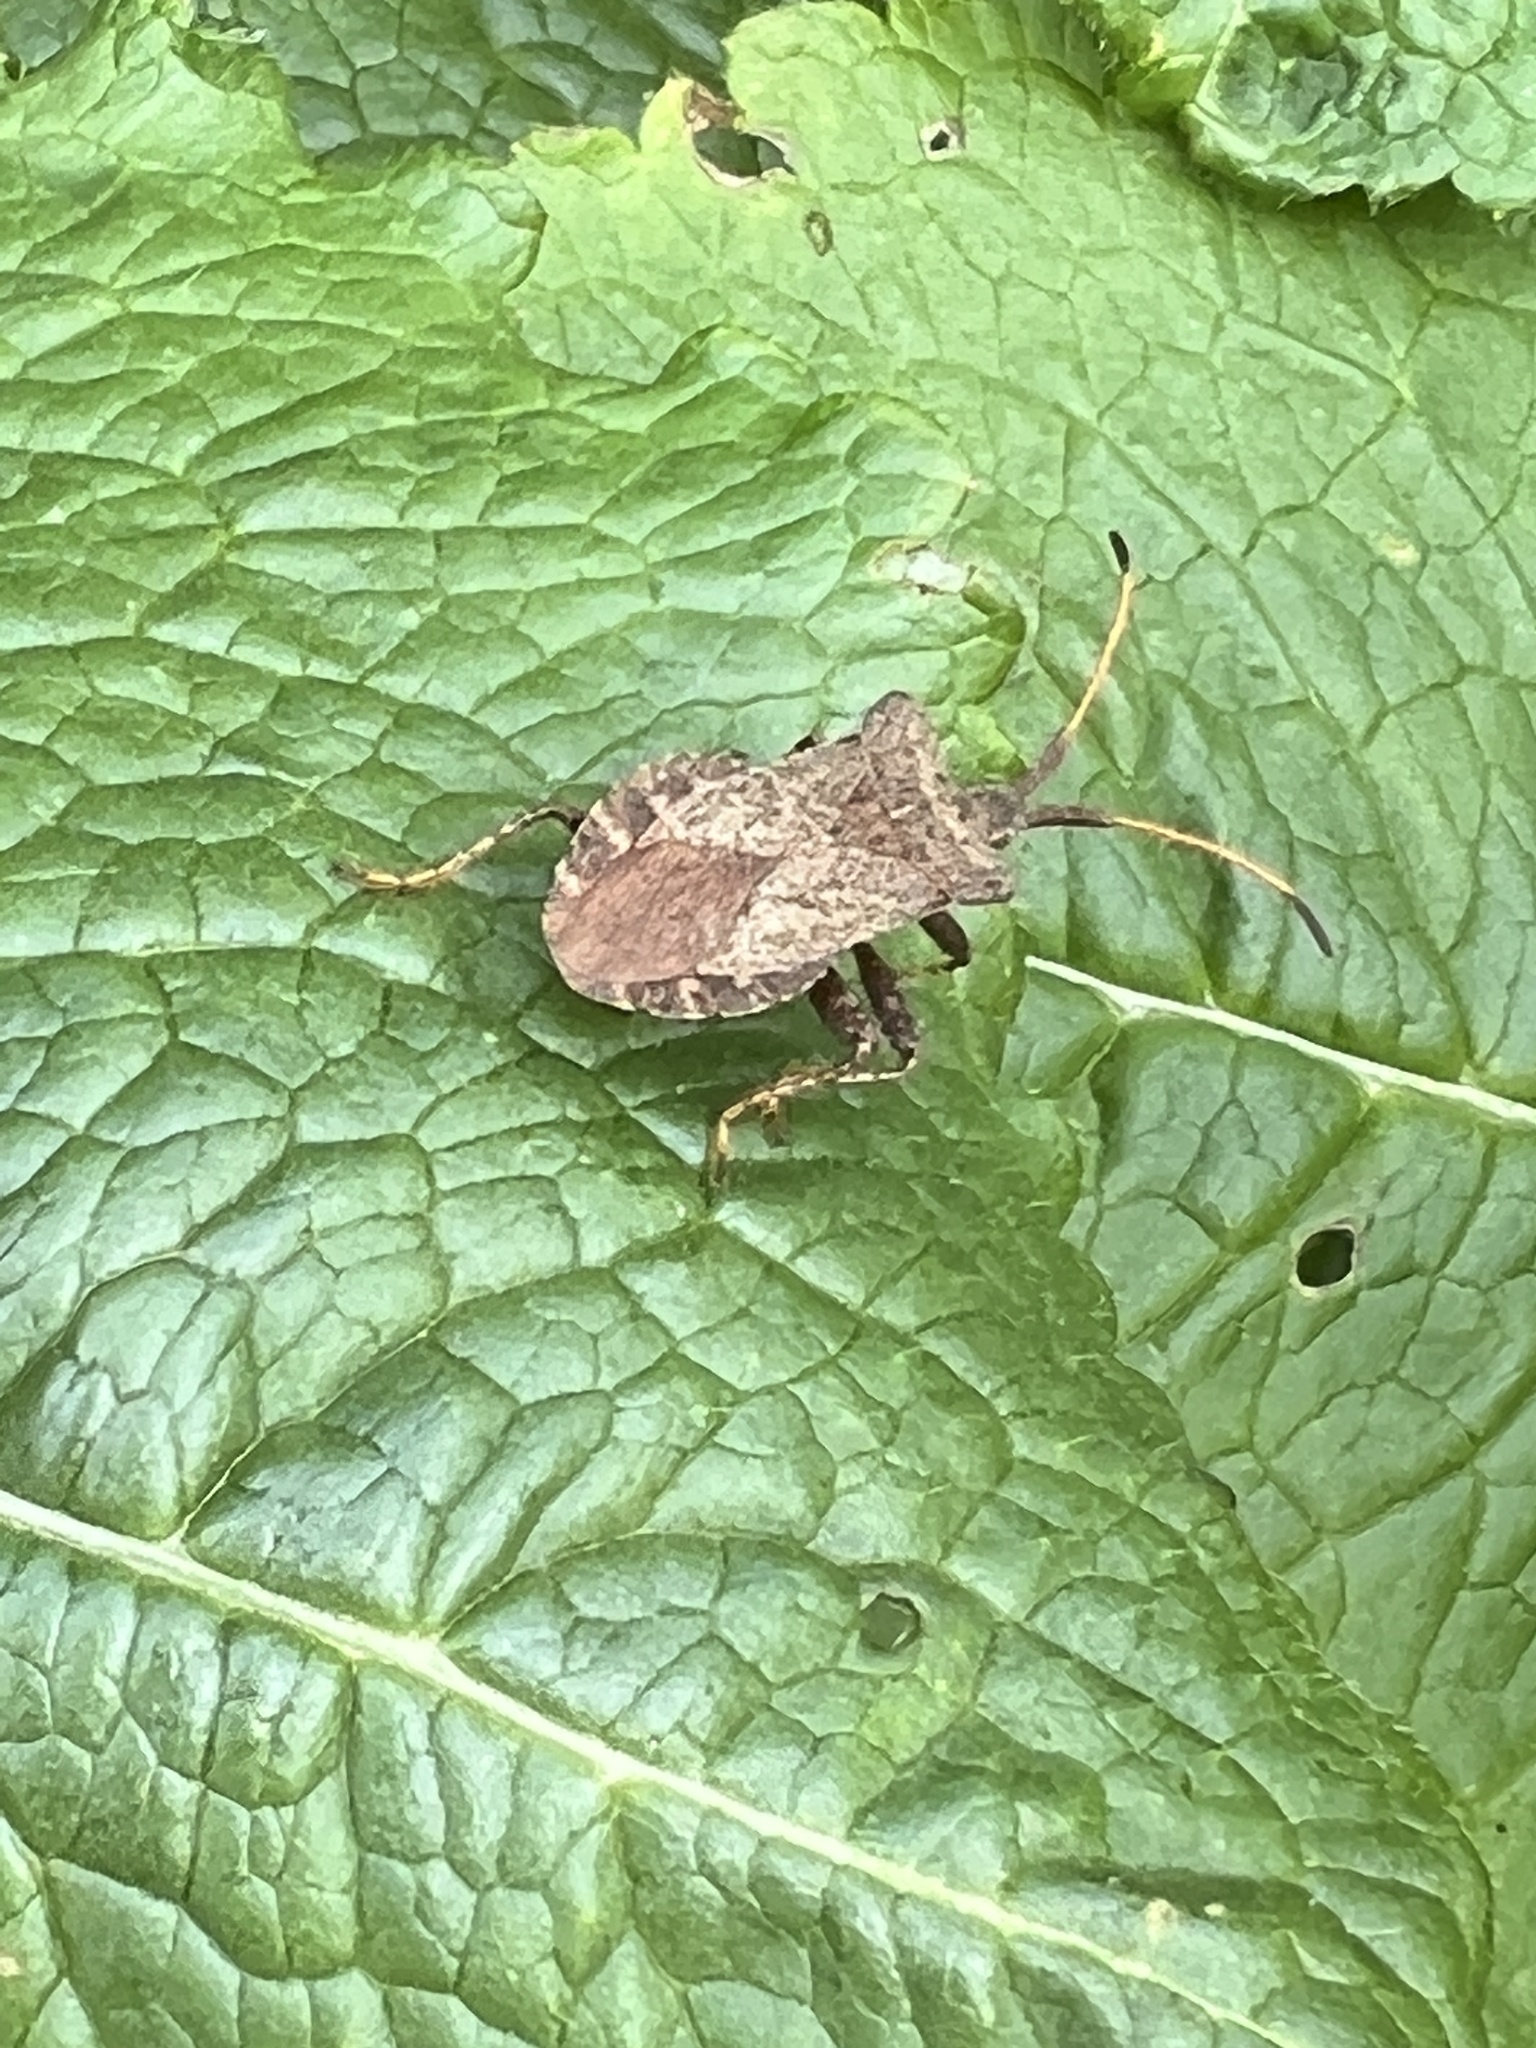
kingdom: Animalia
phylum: Arthropoda
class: Insecta
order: Hemiptera
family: Coreidae
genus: Coreus
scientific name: Coreus marginatus
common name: Dock bug
